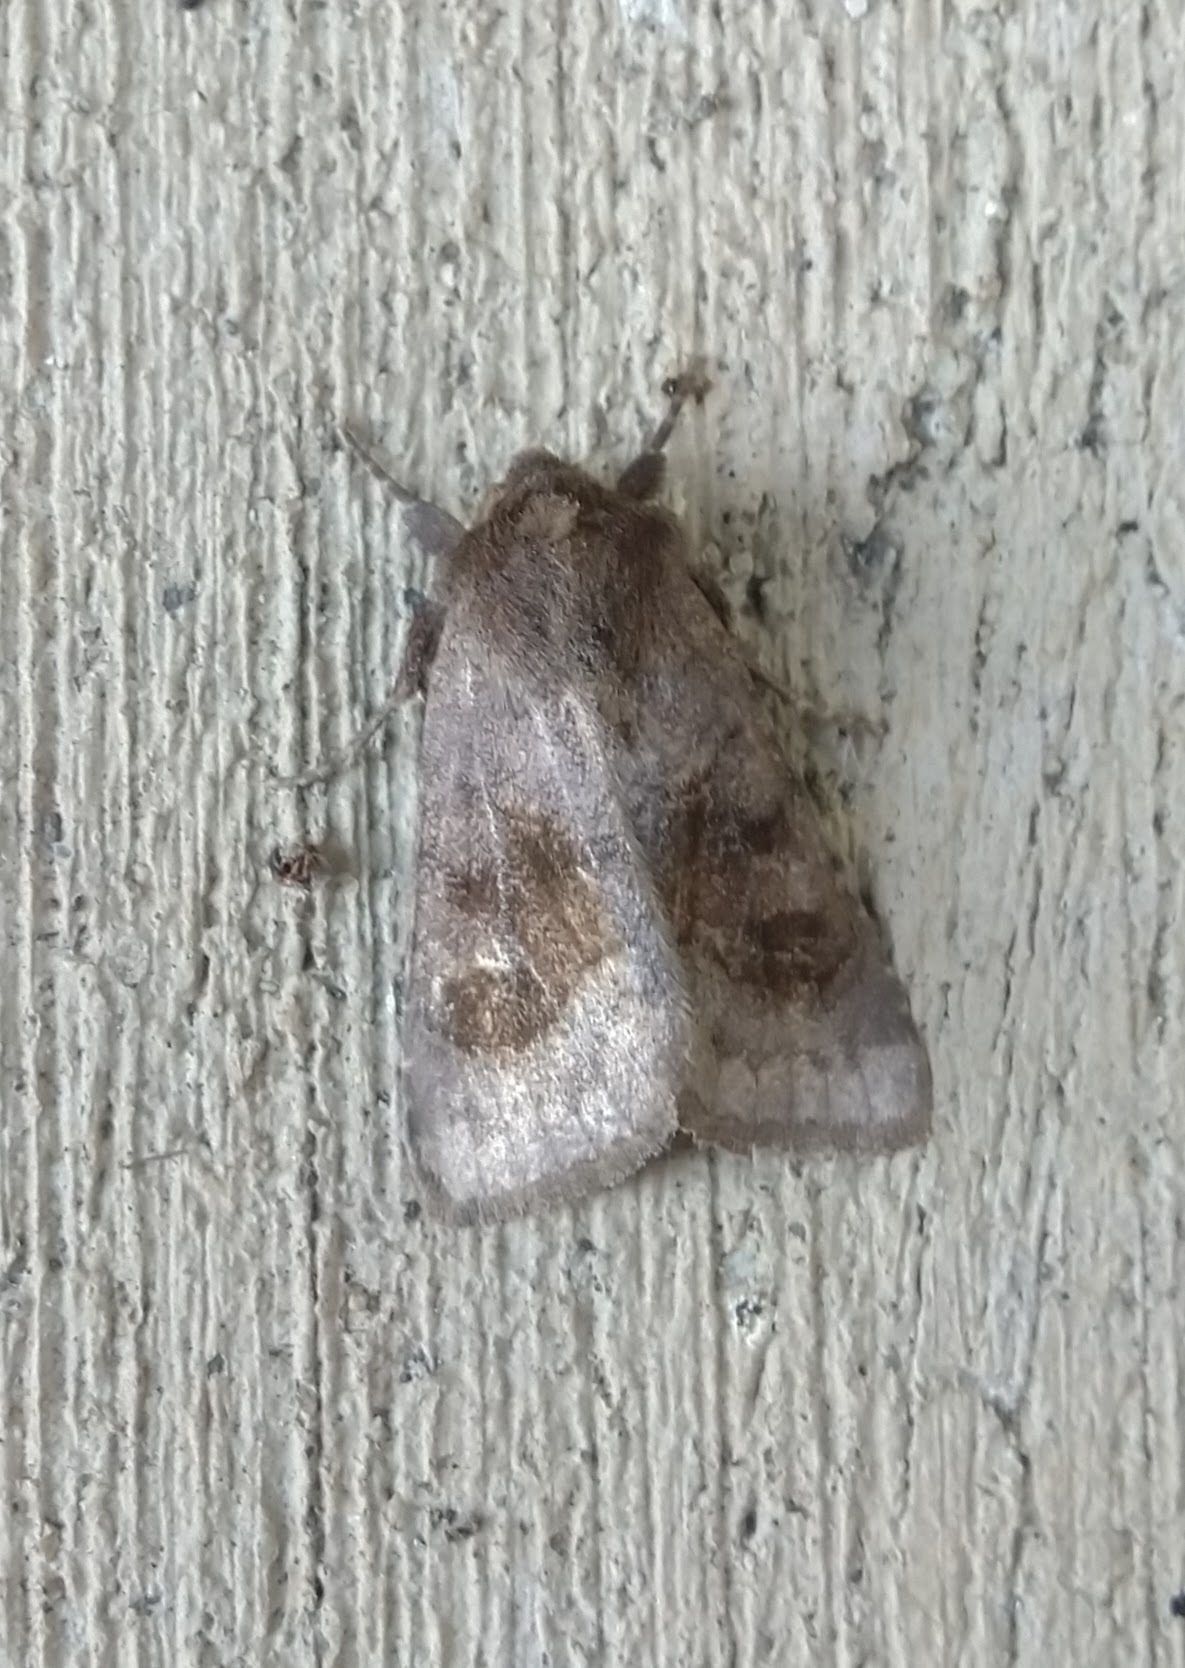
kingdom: Animalia
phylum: Arthropoda
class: Insecta
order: Lepidoptera
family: Noctuidae
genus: Nephelodes
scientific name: Nephelodes minians
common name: Bronzed cutworm
